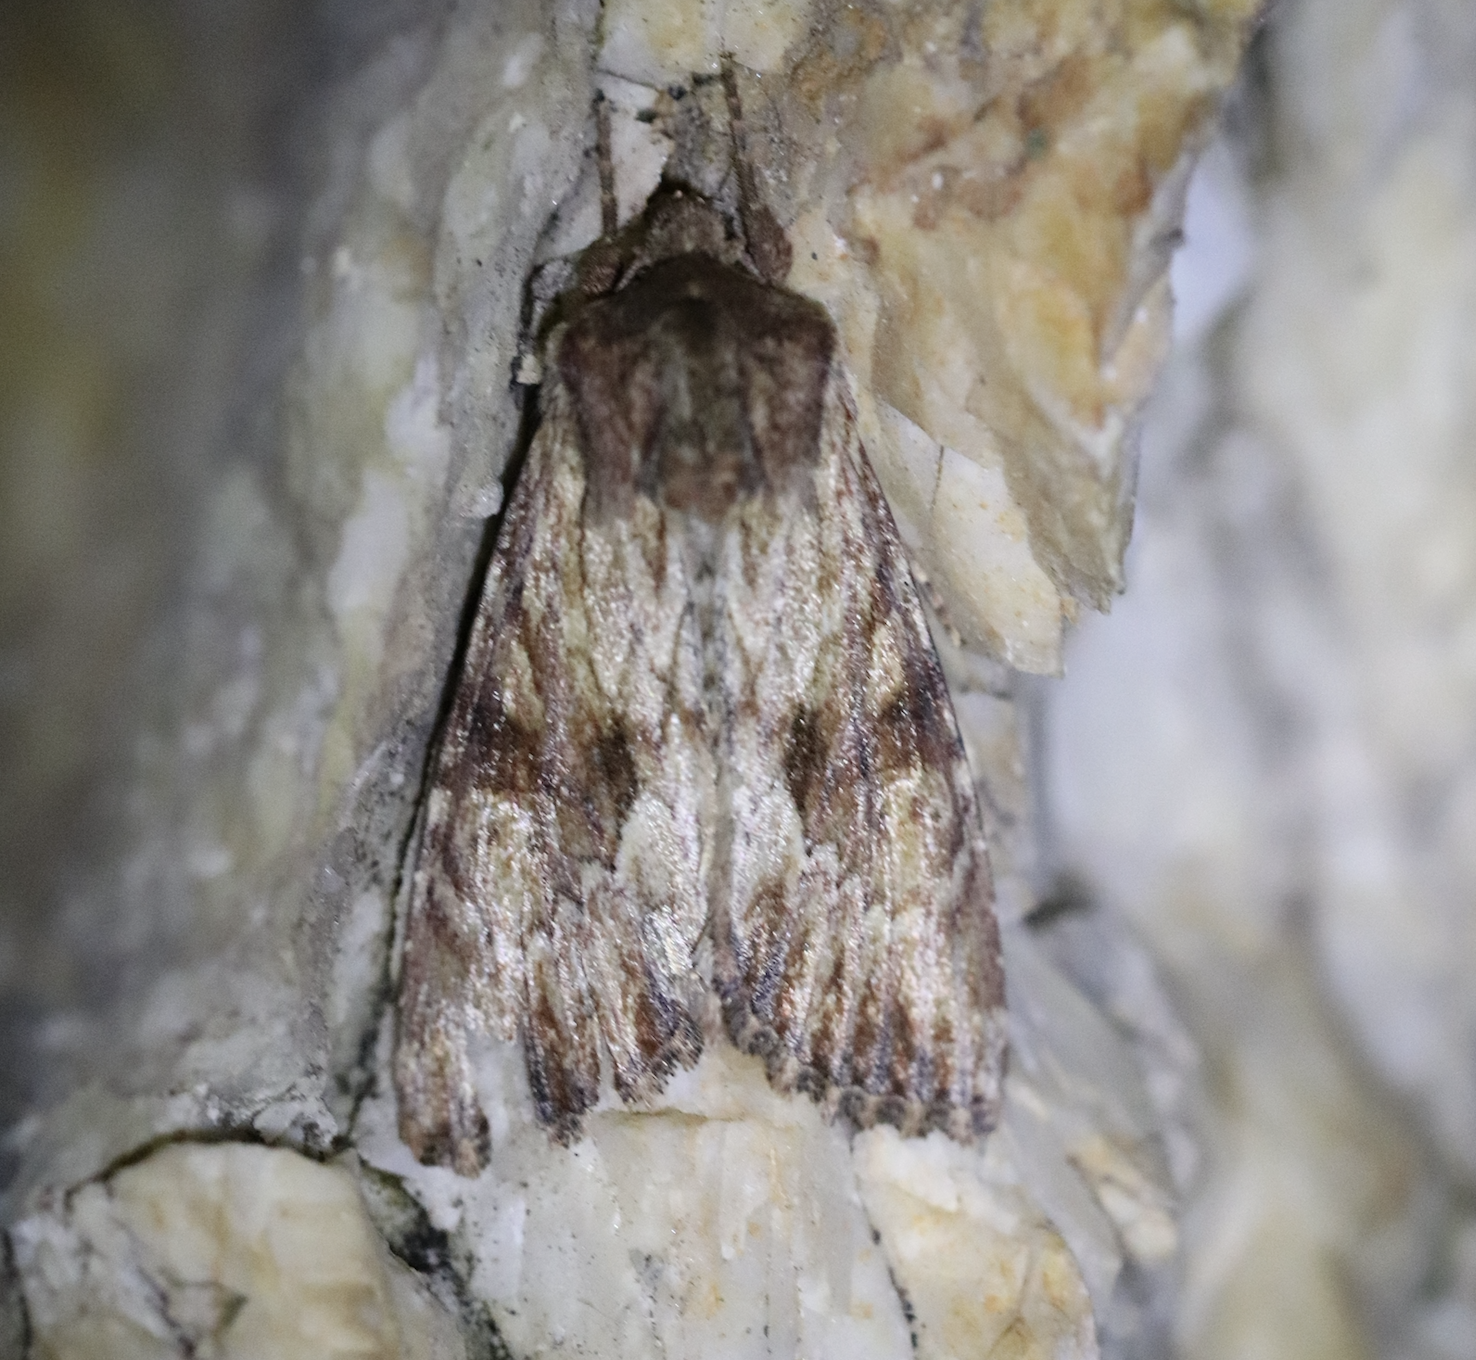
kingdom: Animalia
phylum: Arthropoda
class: Insecta
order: Lepidoptera
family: Noctuidae
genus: Apamea
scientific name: Apamea sublustris
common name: Reddish light arches
